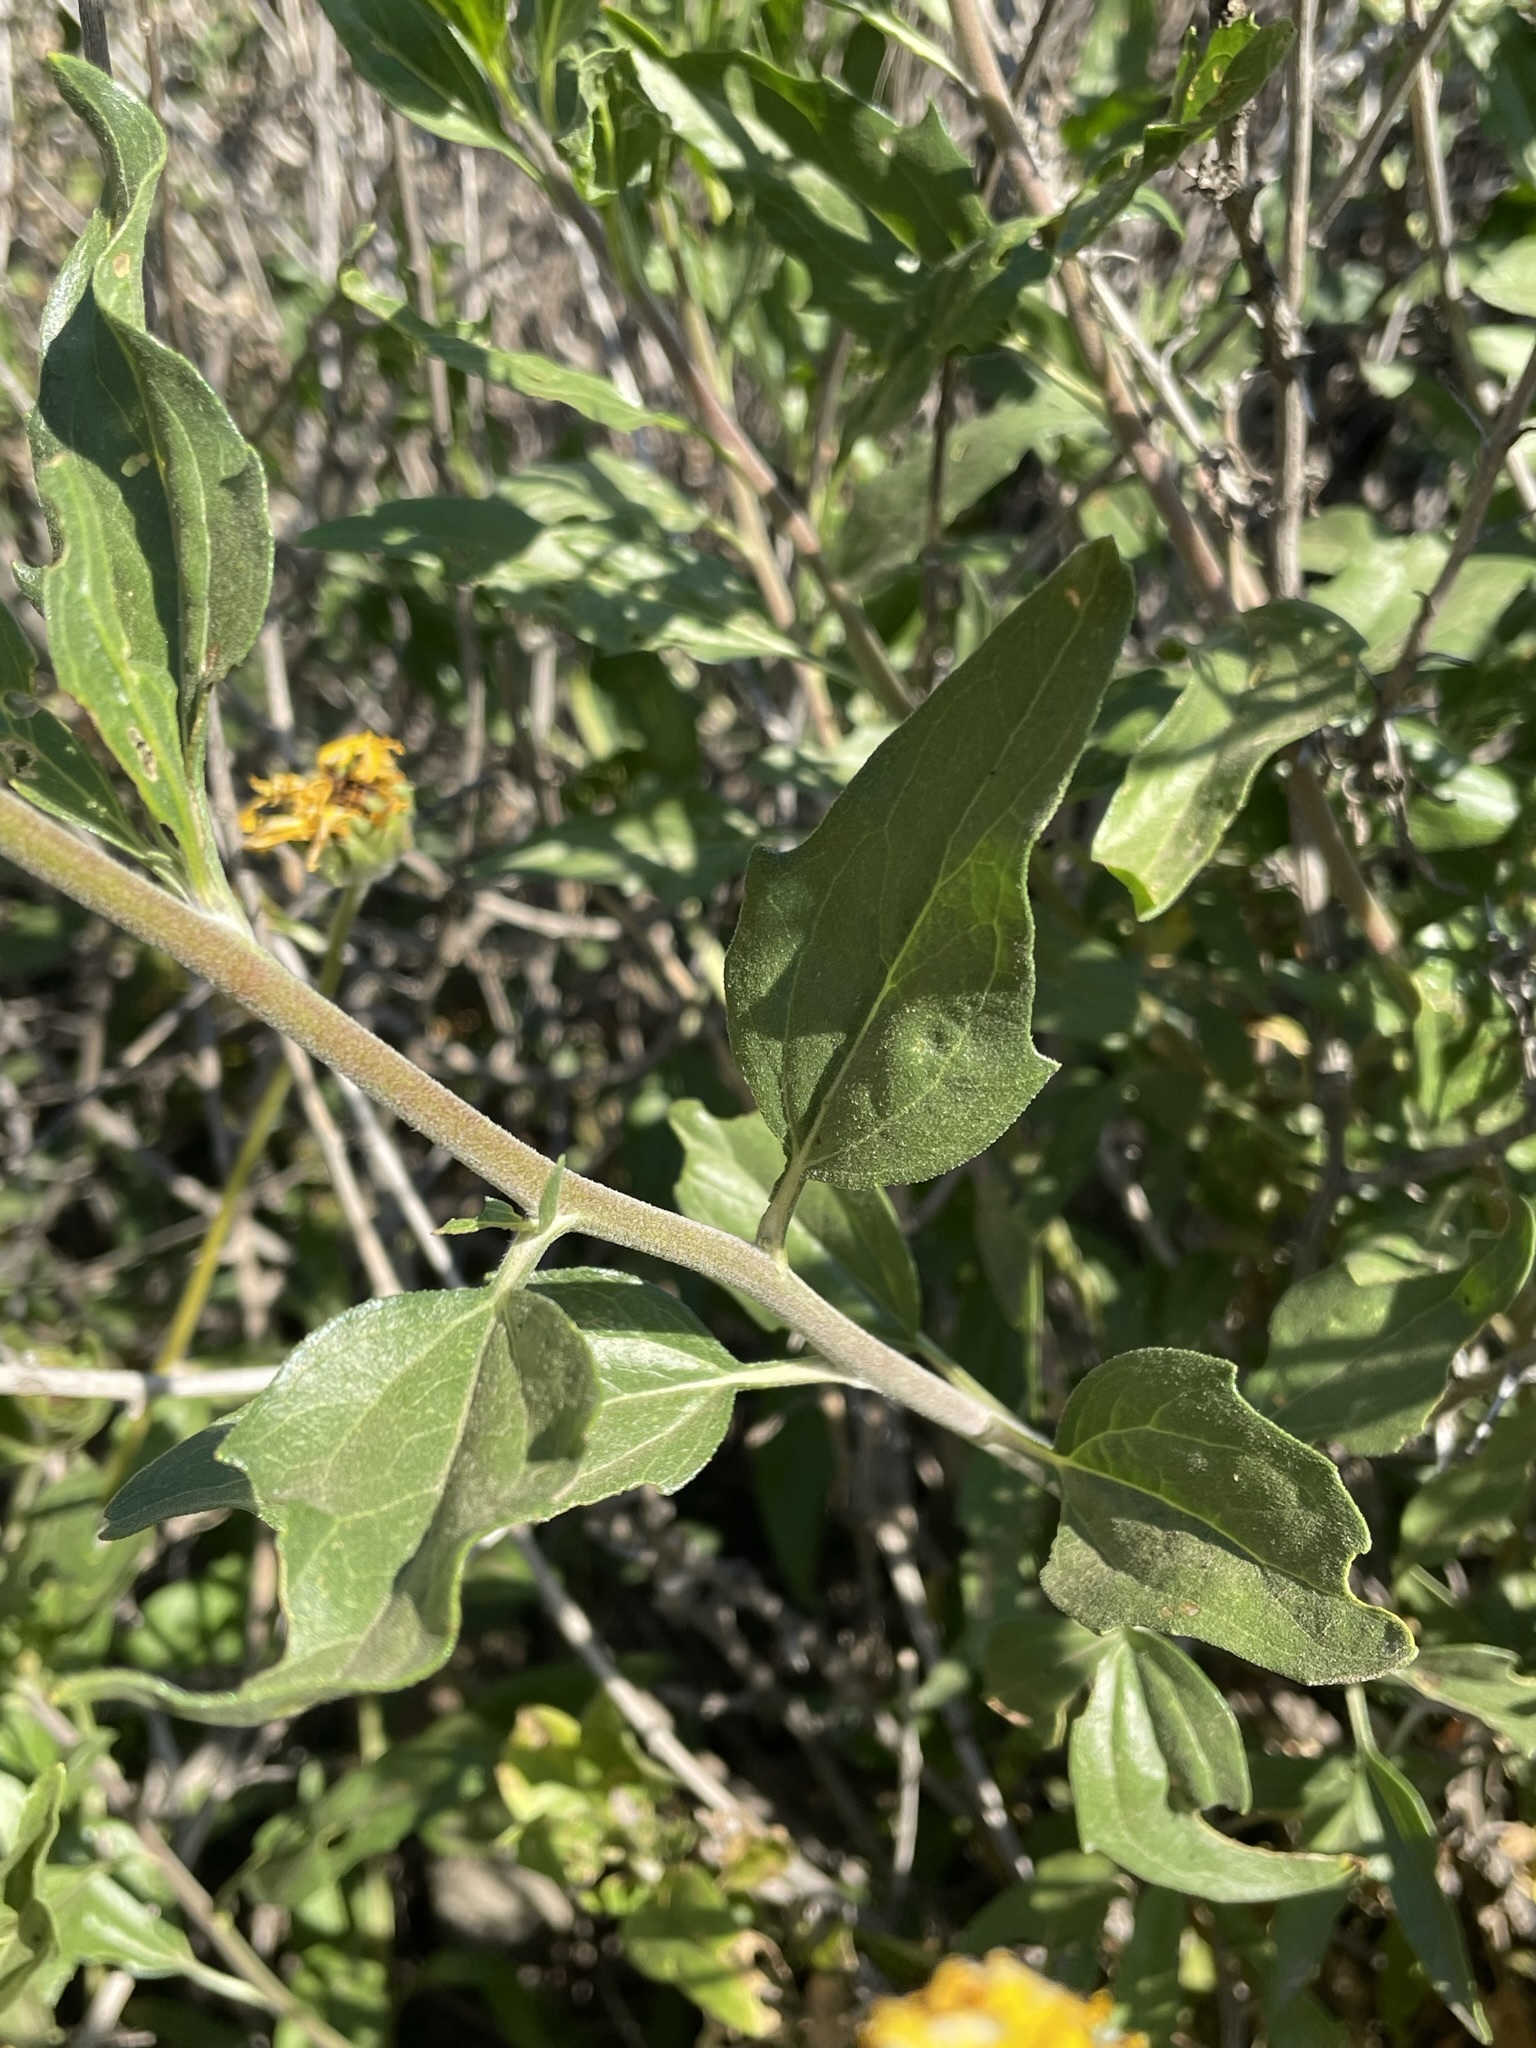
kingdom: Plantae
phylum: Tracheophyta
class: Magnoliopsida
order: Asterales
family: Asteraceae
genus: Encelia
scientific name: Encelia californica
